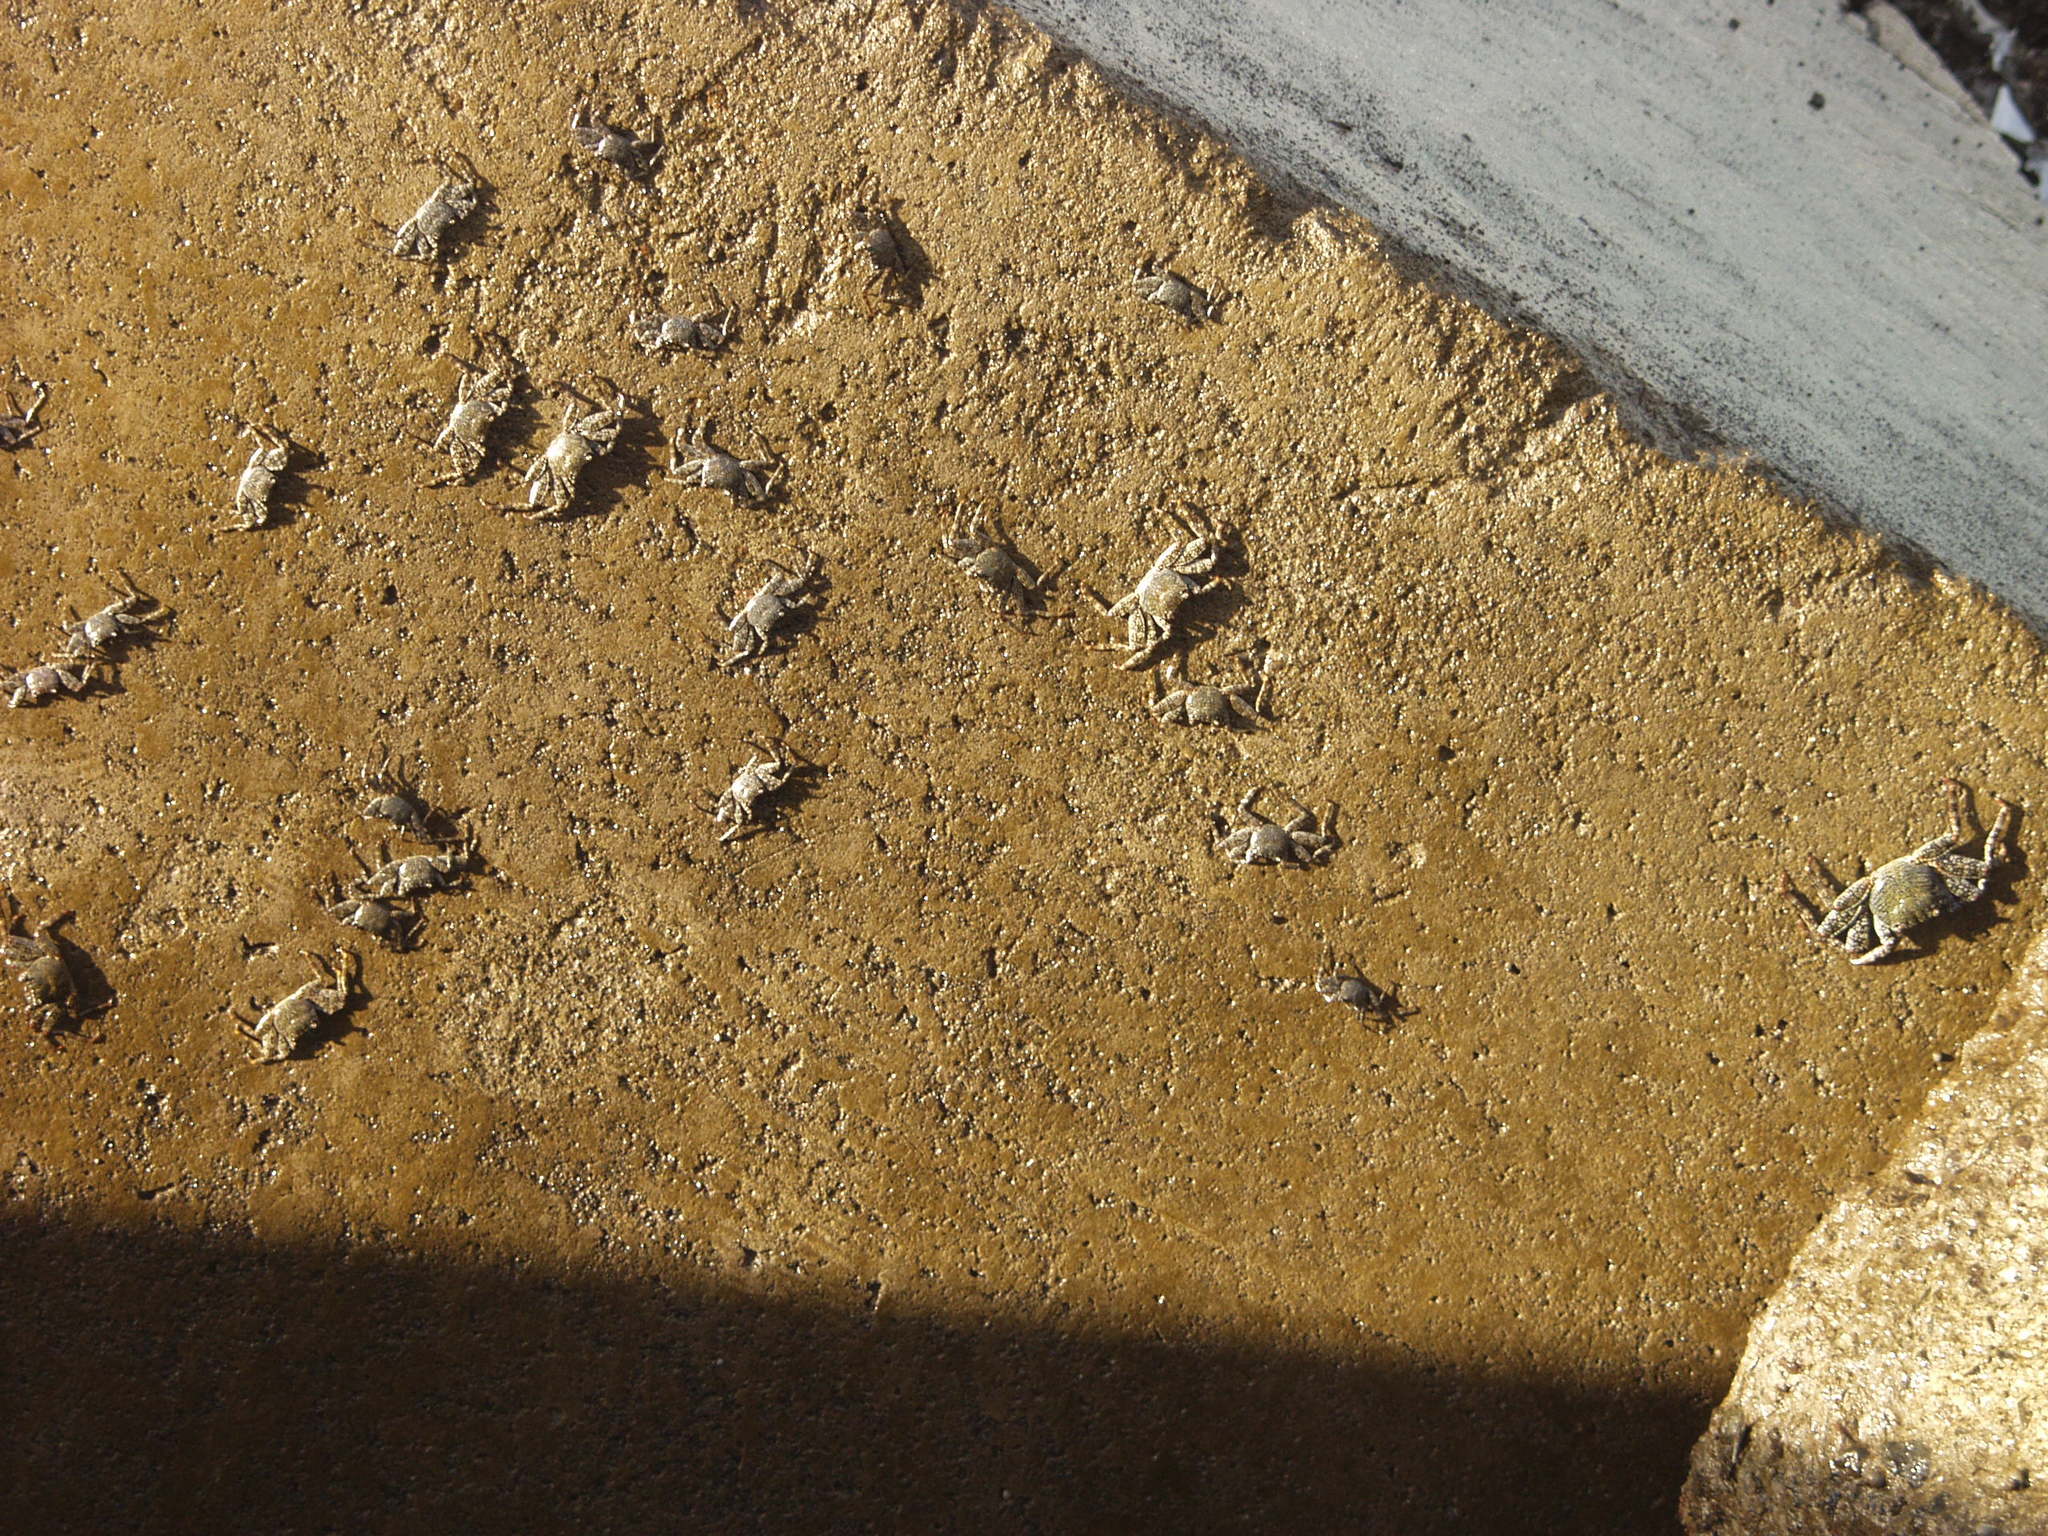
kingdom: Animalia
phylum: Arthropoda
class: Malacostraca
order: Decapoda
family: Grapsidae
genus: Pachygrapsus
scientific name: Pachygrapsus marmoratus
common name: Marbled rock crab
